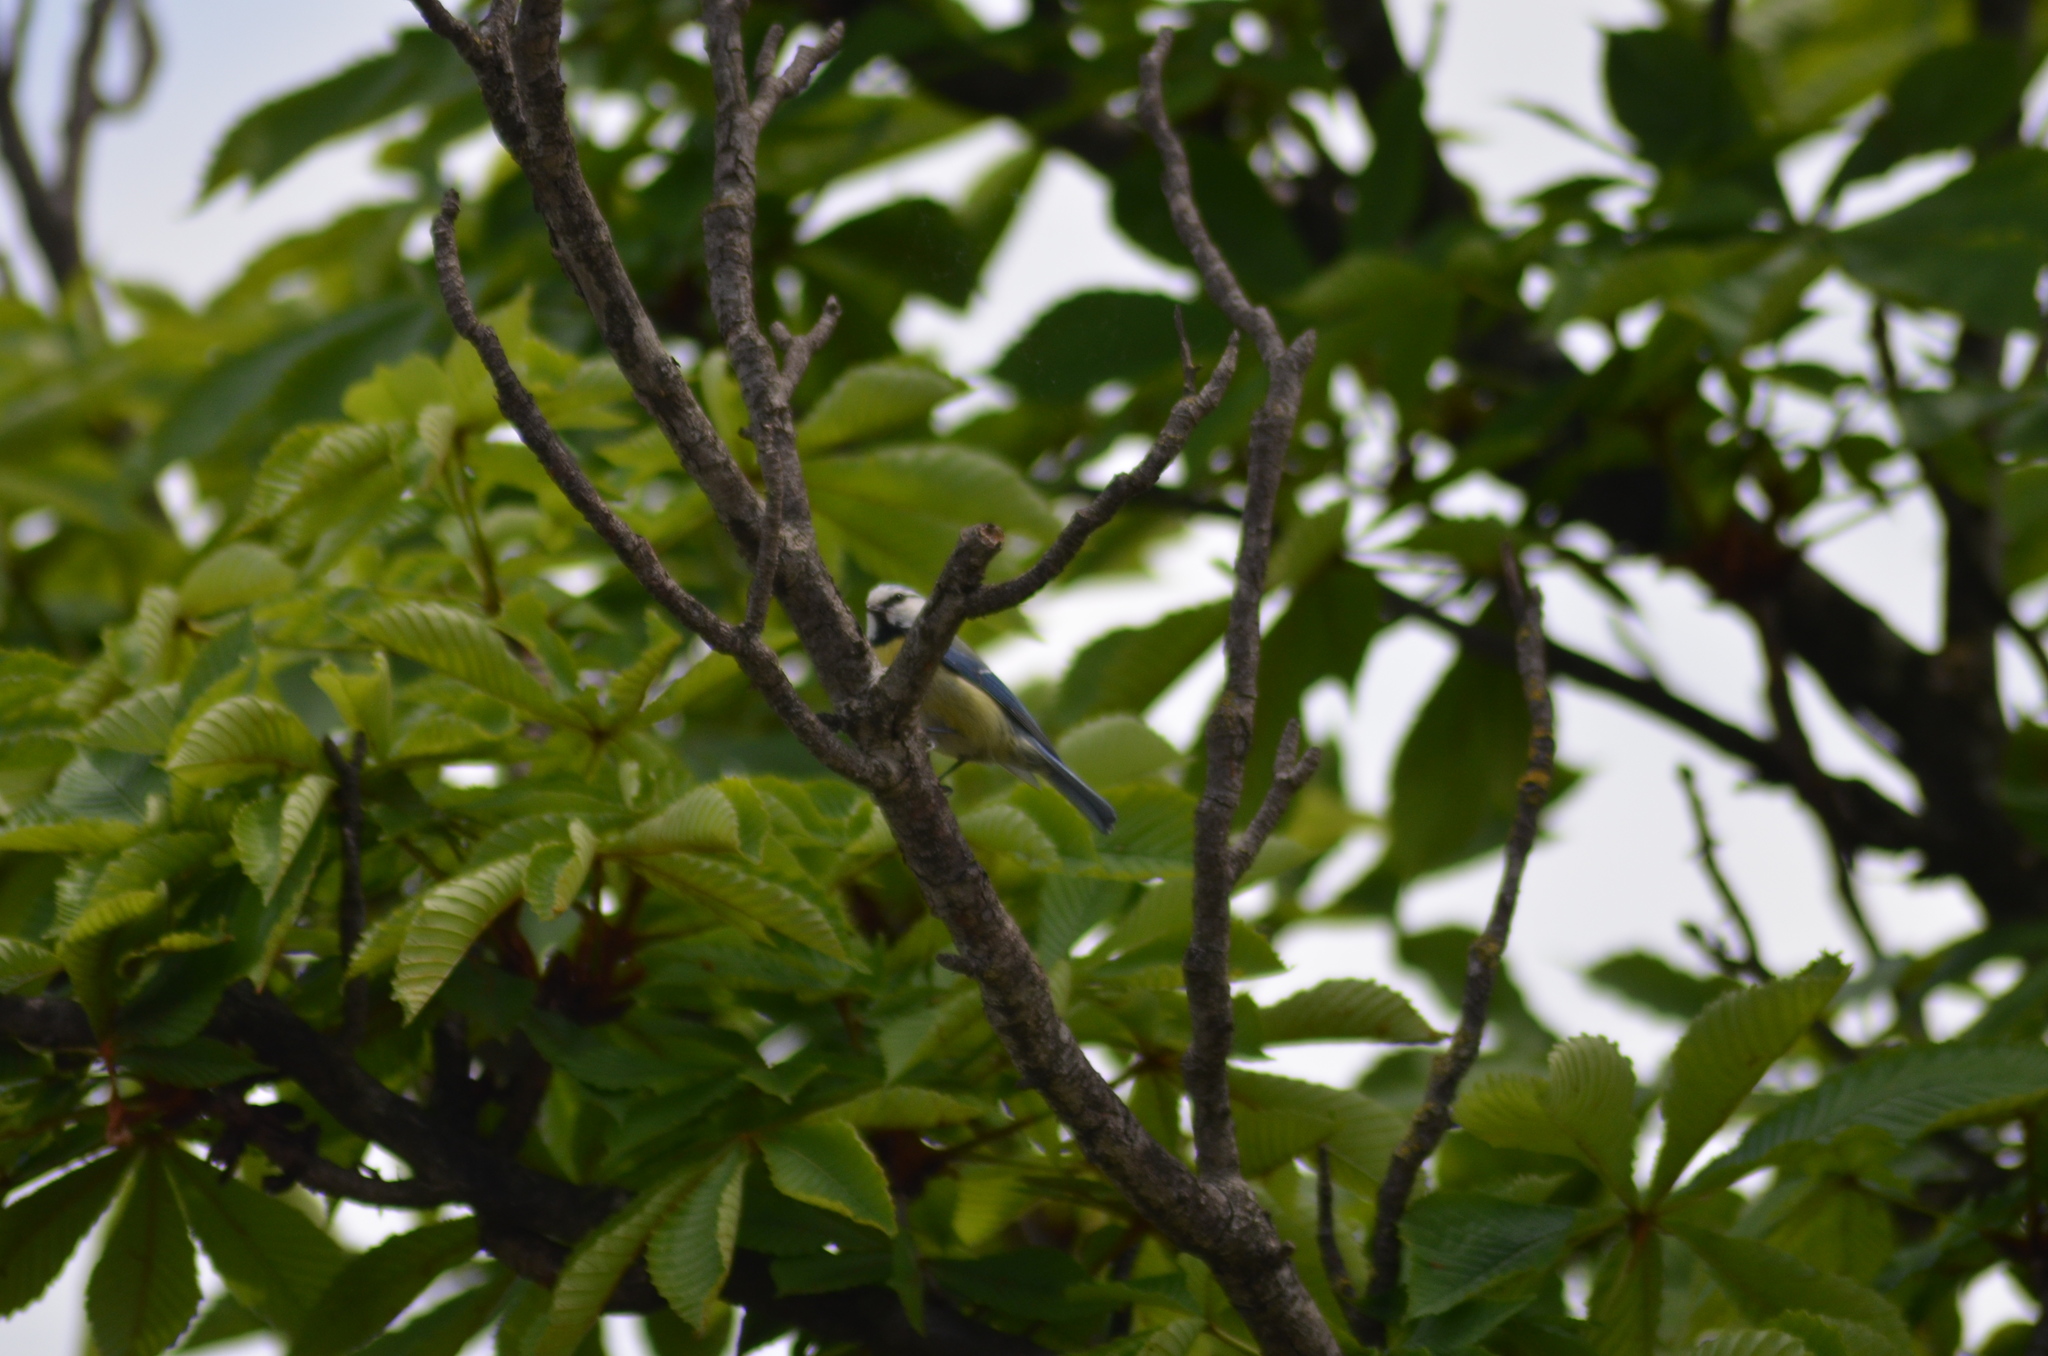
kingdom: Animalia
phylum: Chordata
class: Aves
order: Passeriformes
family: Paridae
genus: Cyanistes
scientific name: Cyanistes caeruleus
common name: Eurasian blue tit
